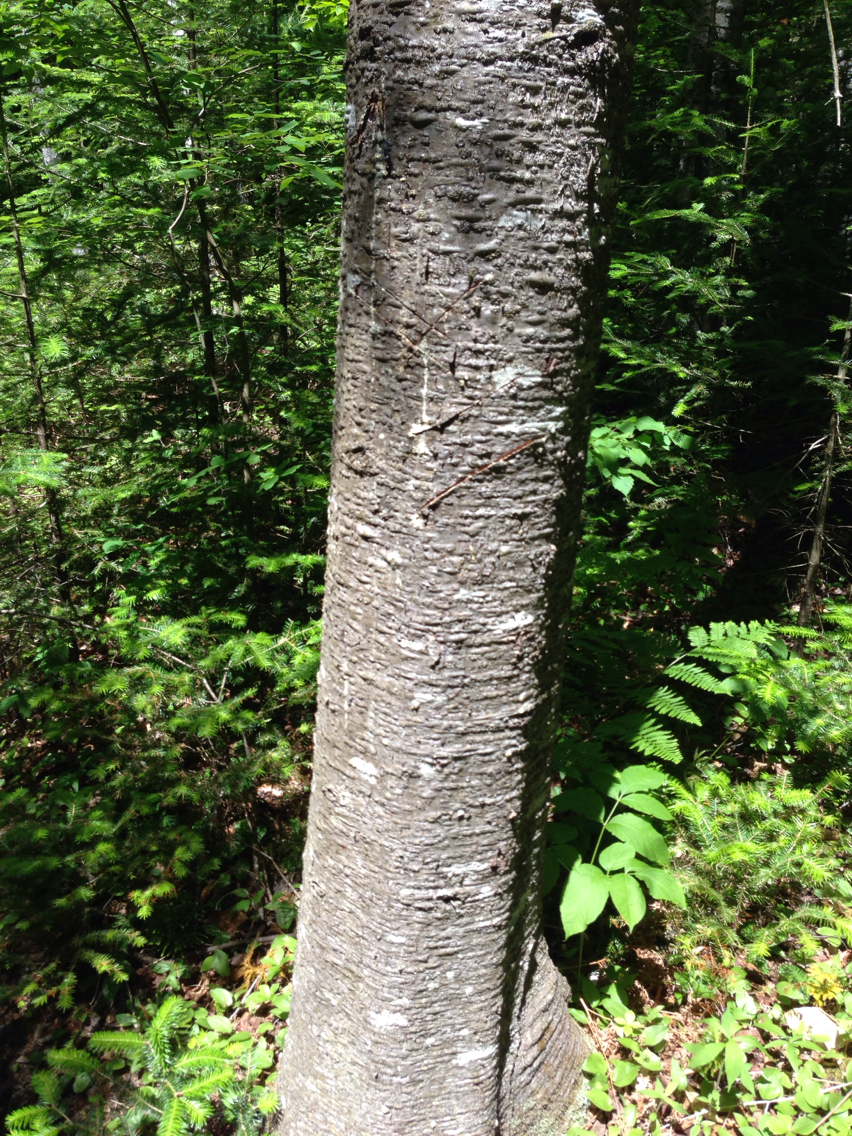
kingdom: Plantae
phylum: Tracheophyta
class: Pinopsida
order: Pinales
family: Pinaceae
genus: Abies
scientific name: Abies balsamea
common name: Balsam fir
